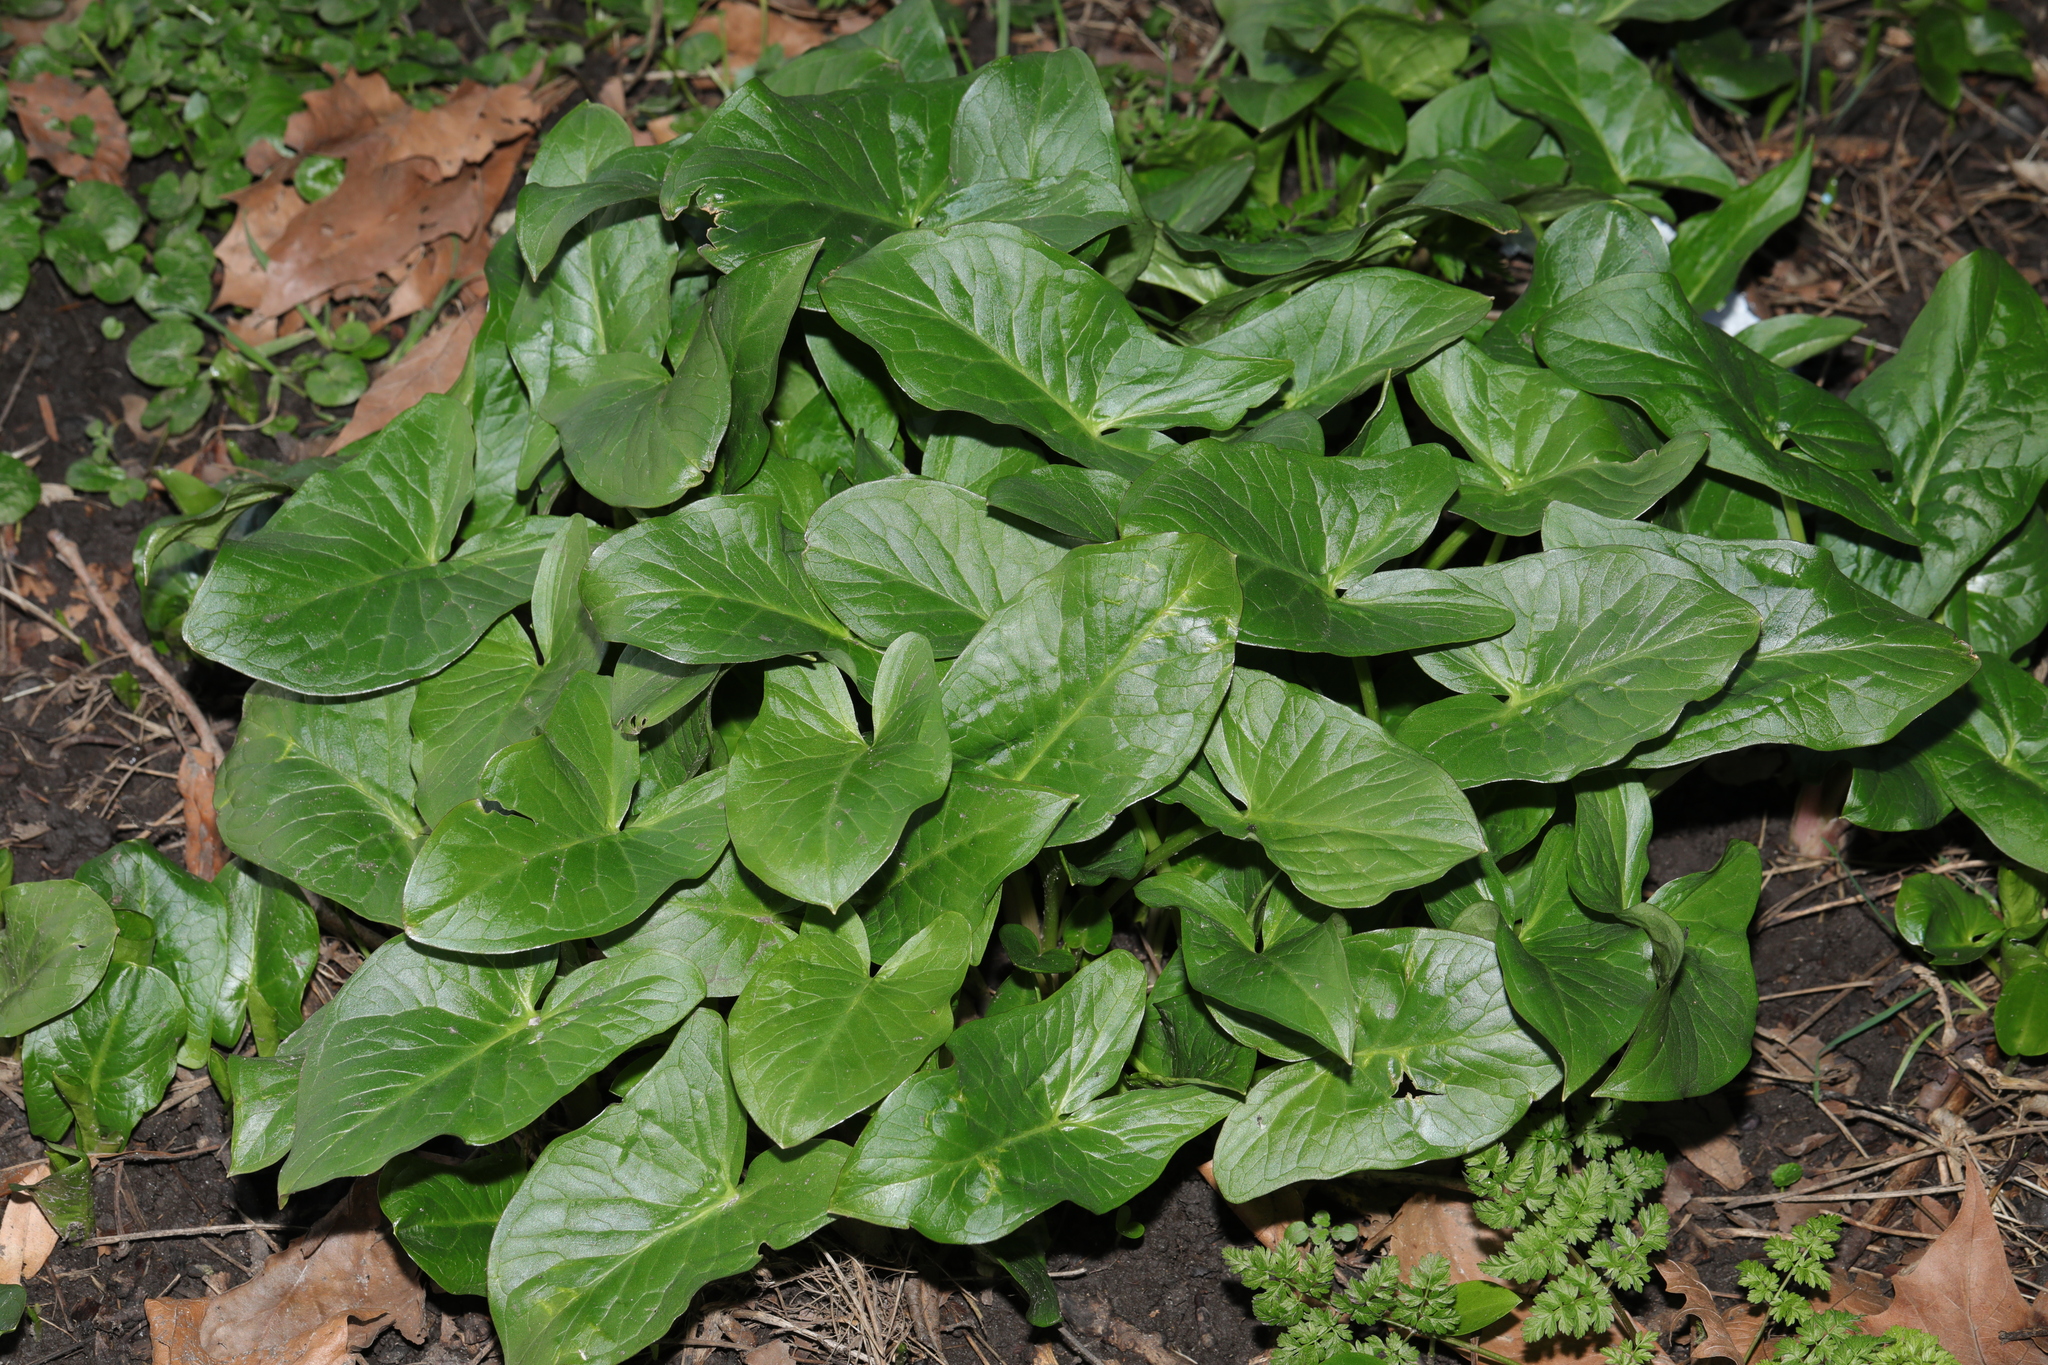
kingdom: Plantae
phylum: Tracheophyta
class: Liliopsida
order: Alismatales
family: Araceae
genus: Arum
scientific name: Arum maculatum
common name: Lords-and-ladies
